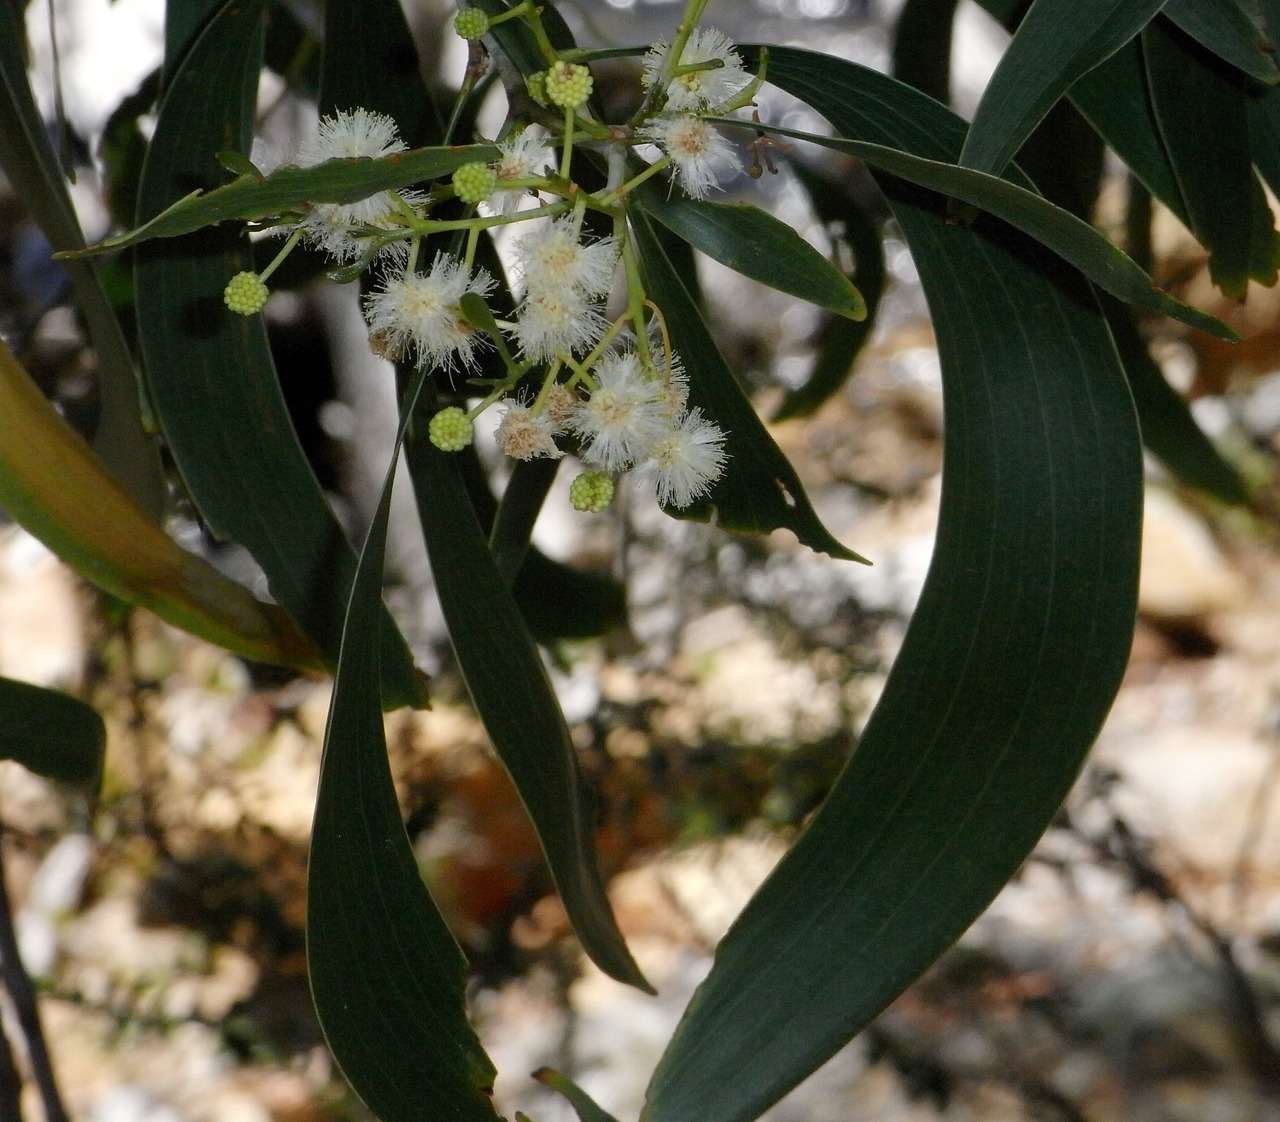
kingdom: Plantae
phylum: Tracheophyta
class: Magnoliopsida
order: Fabales
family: Fabaceae
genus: Acacia
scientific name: Acacia implexa
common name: Black wattle
